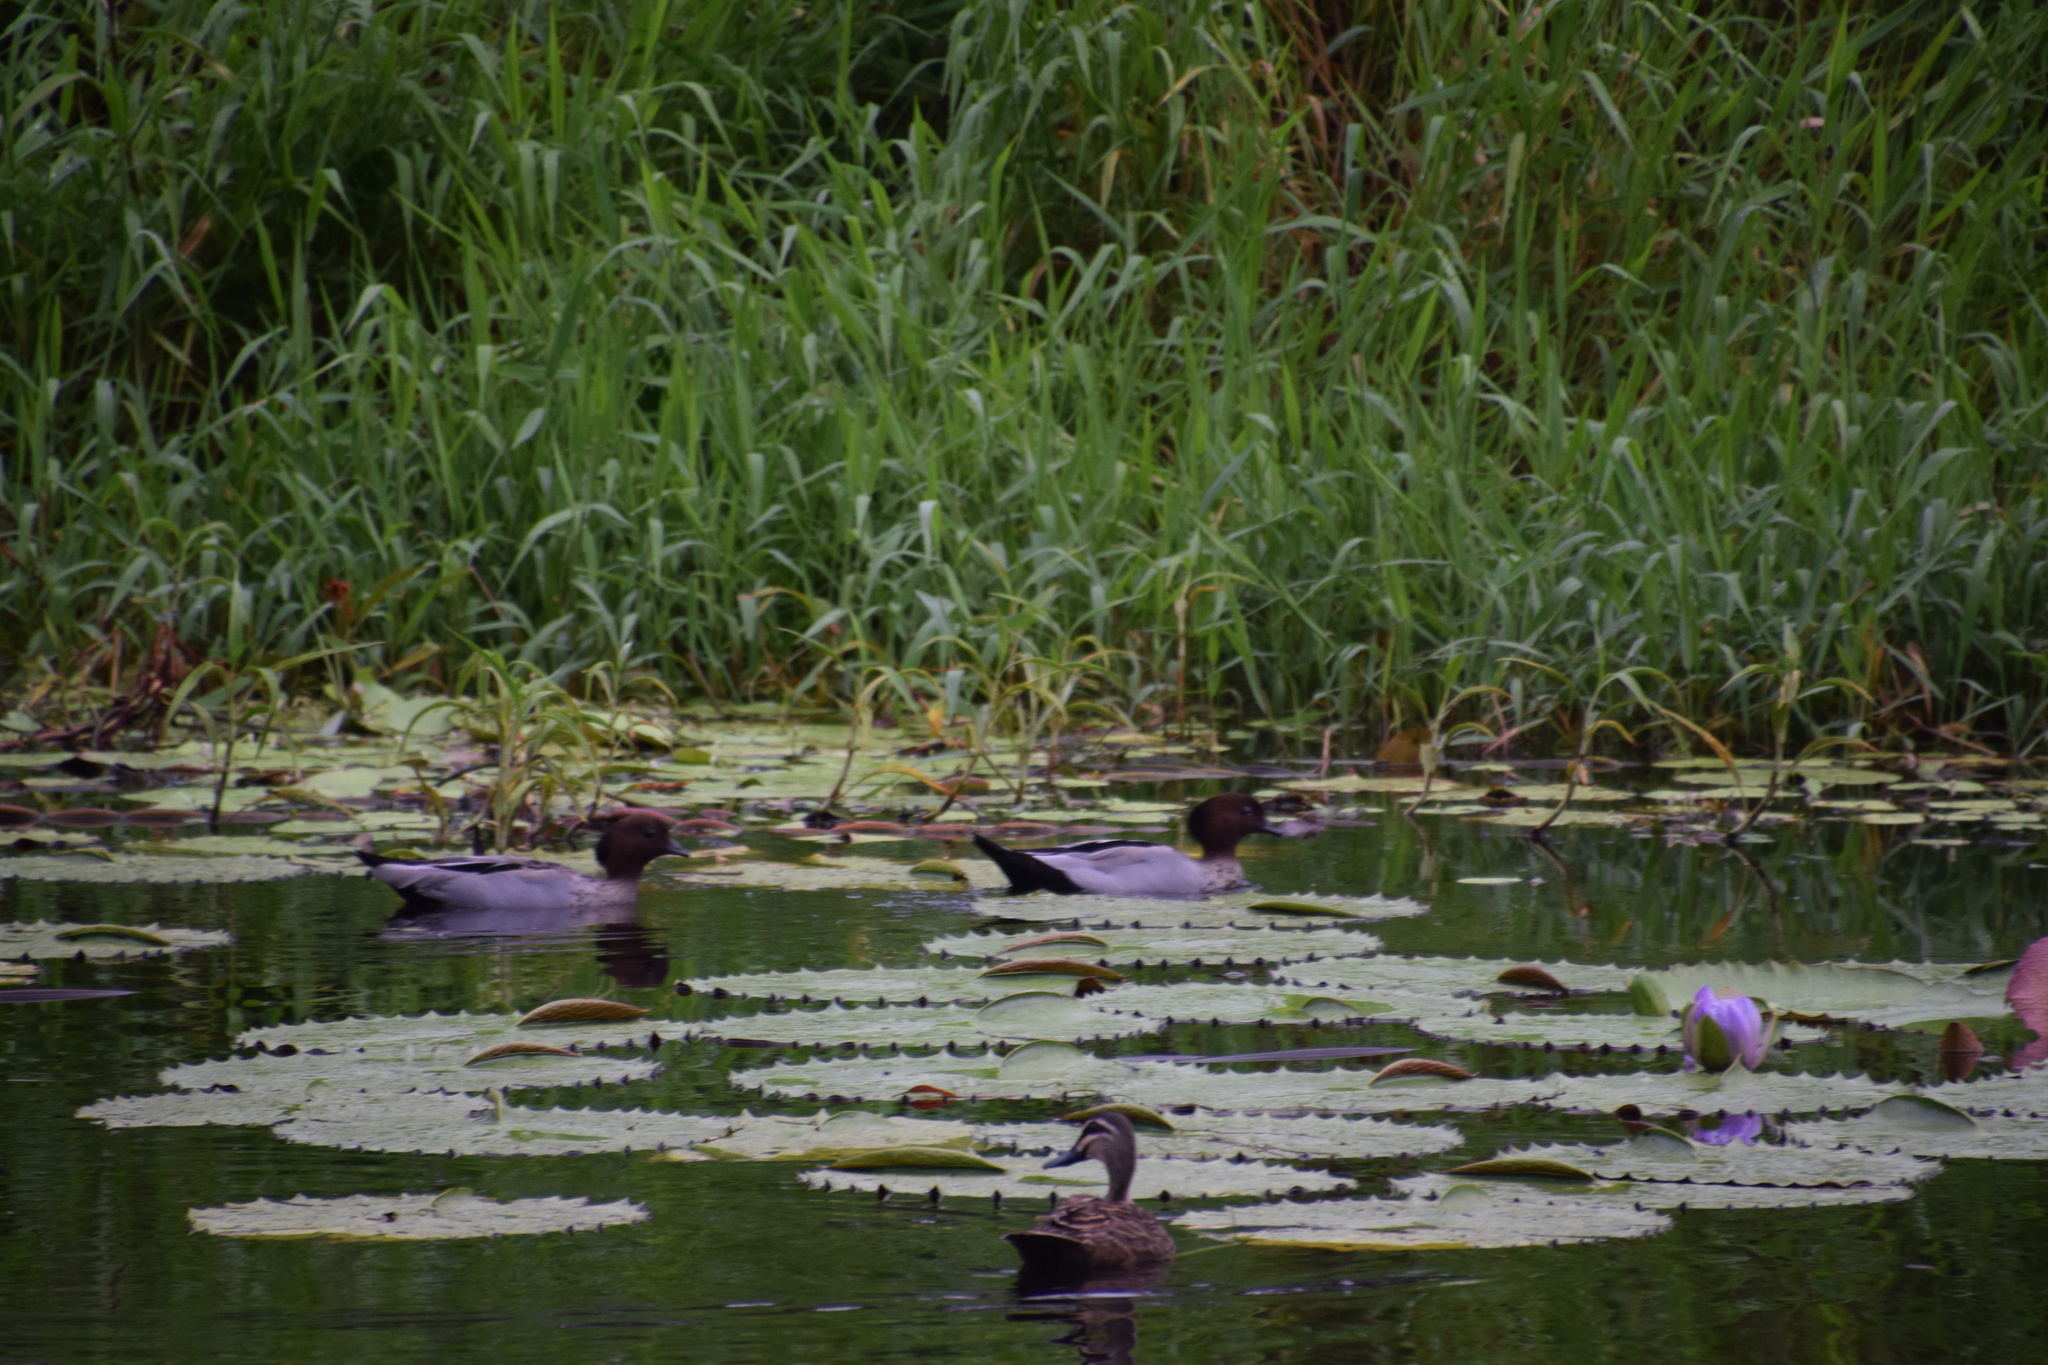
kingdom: Animalia
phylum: Chordata
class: Aves
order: Anseriformes
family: Anatidae
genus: Chenonetta
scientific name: Chenonetta jubata
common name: Maned duck
